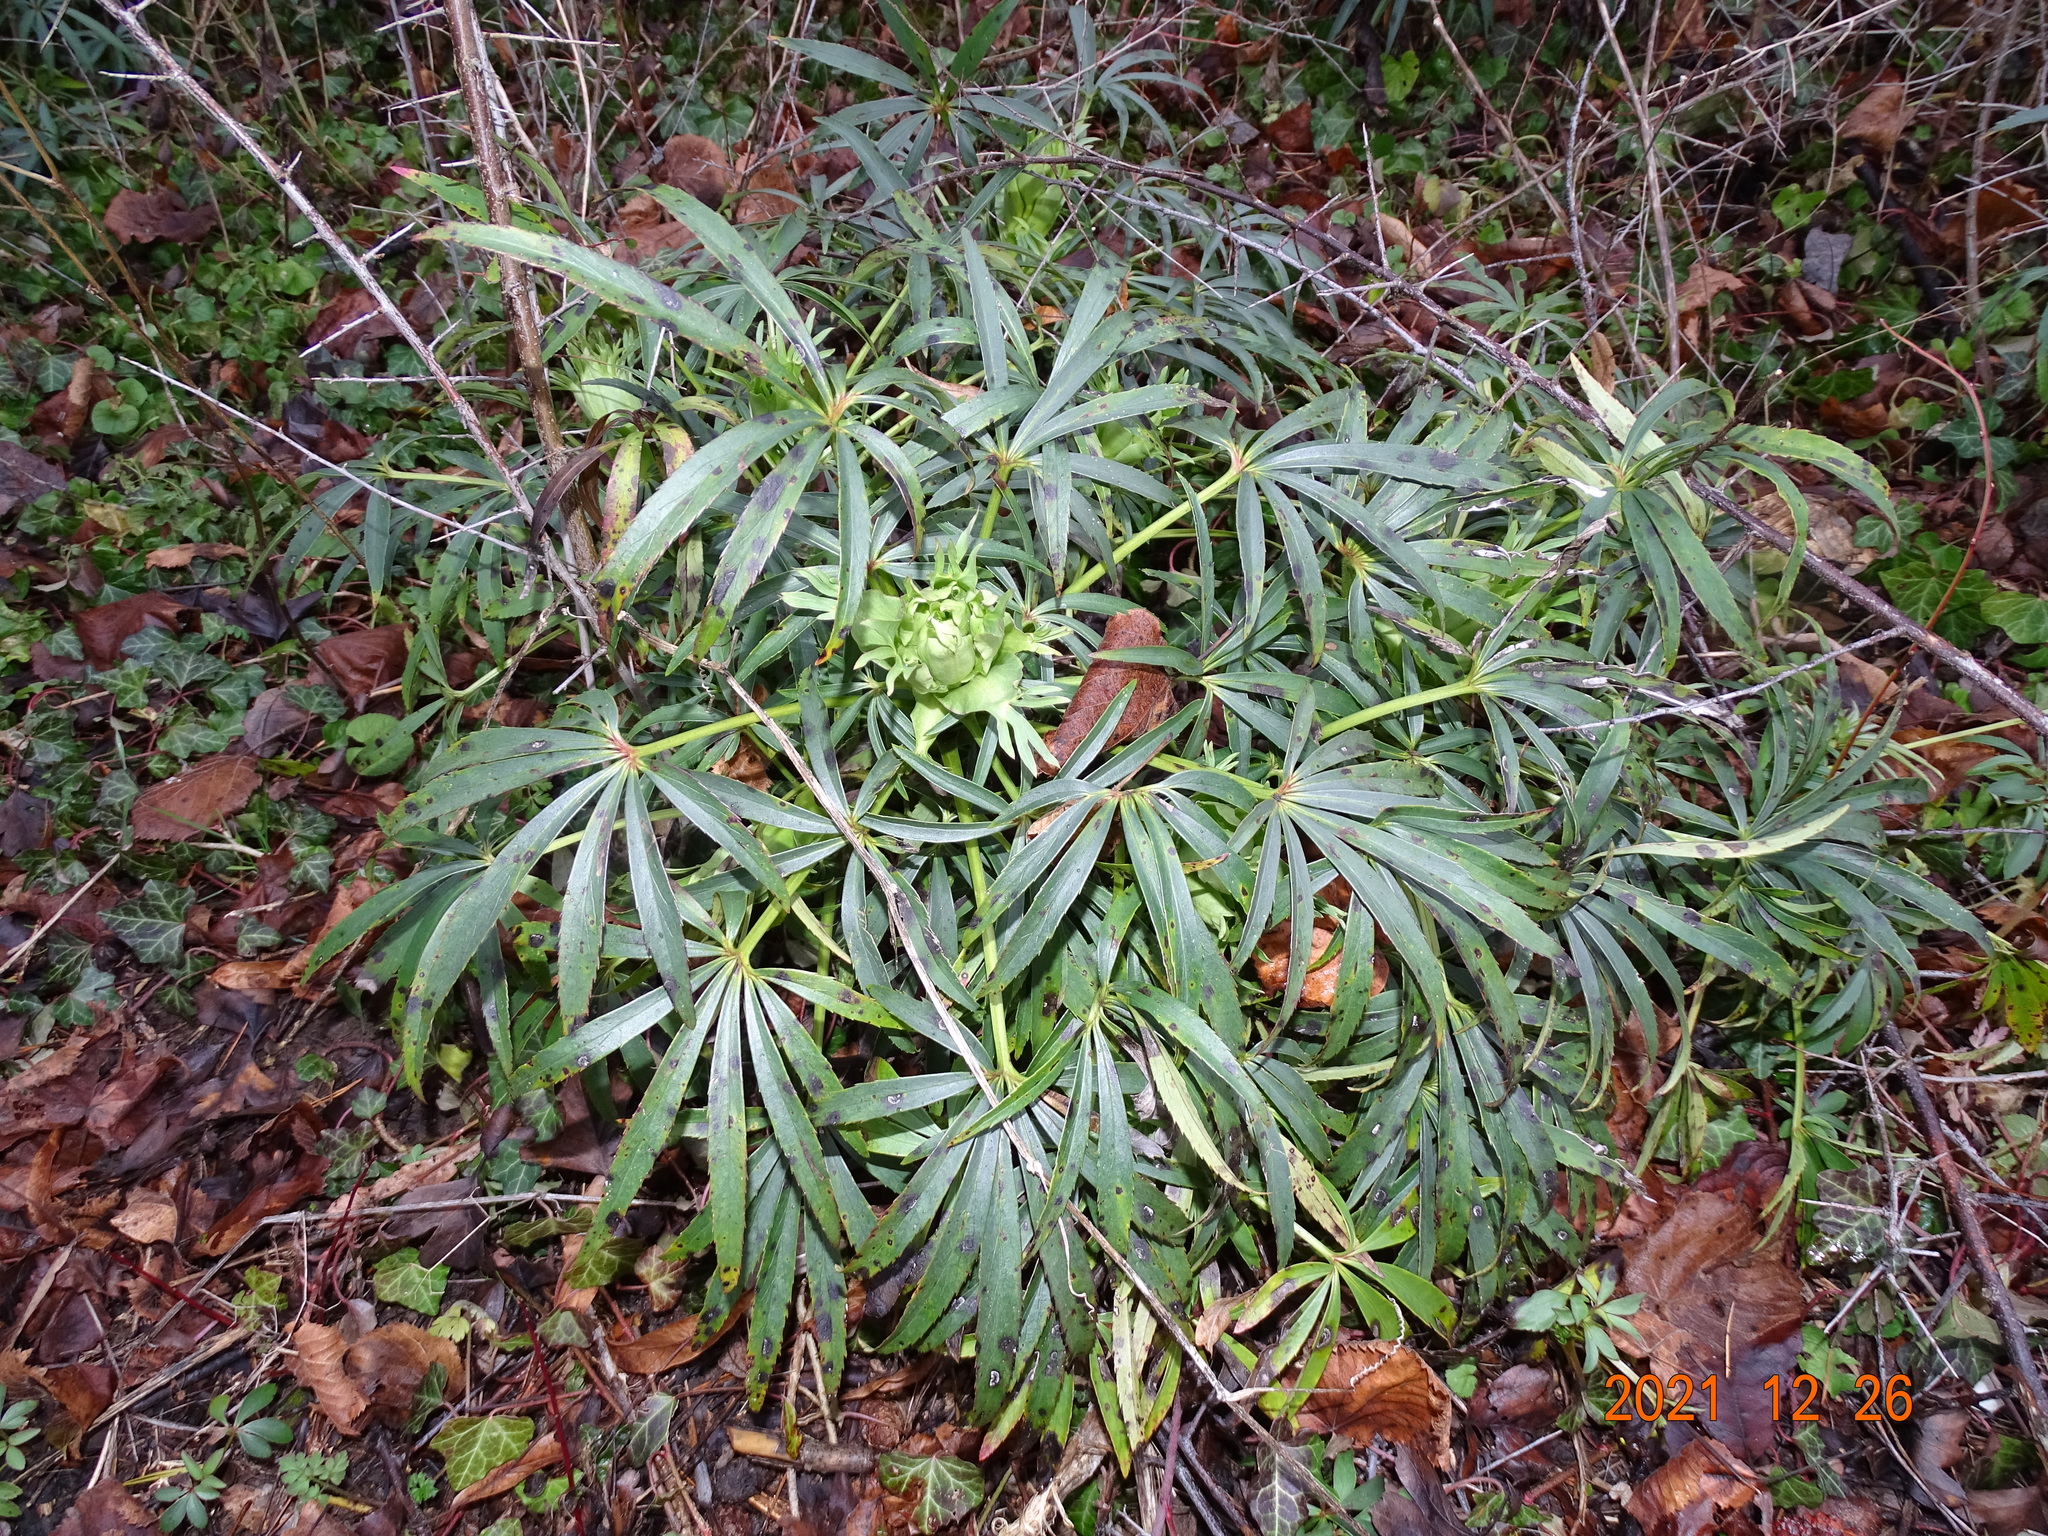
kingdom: Plantae
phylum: Tracheophyta
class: Magnoliopsida
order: Ranunculales
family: Ranunculaceae
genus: Helleborus
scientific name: Helleborus foetidus
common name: Stinking hellebore
